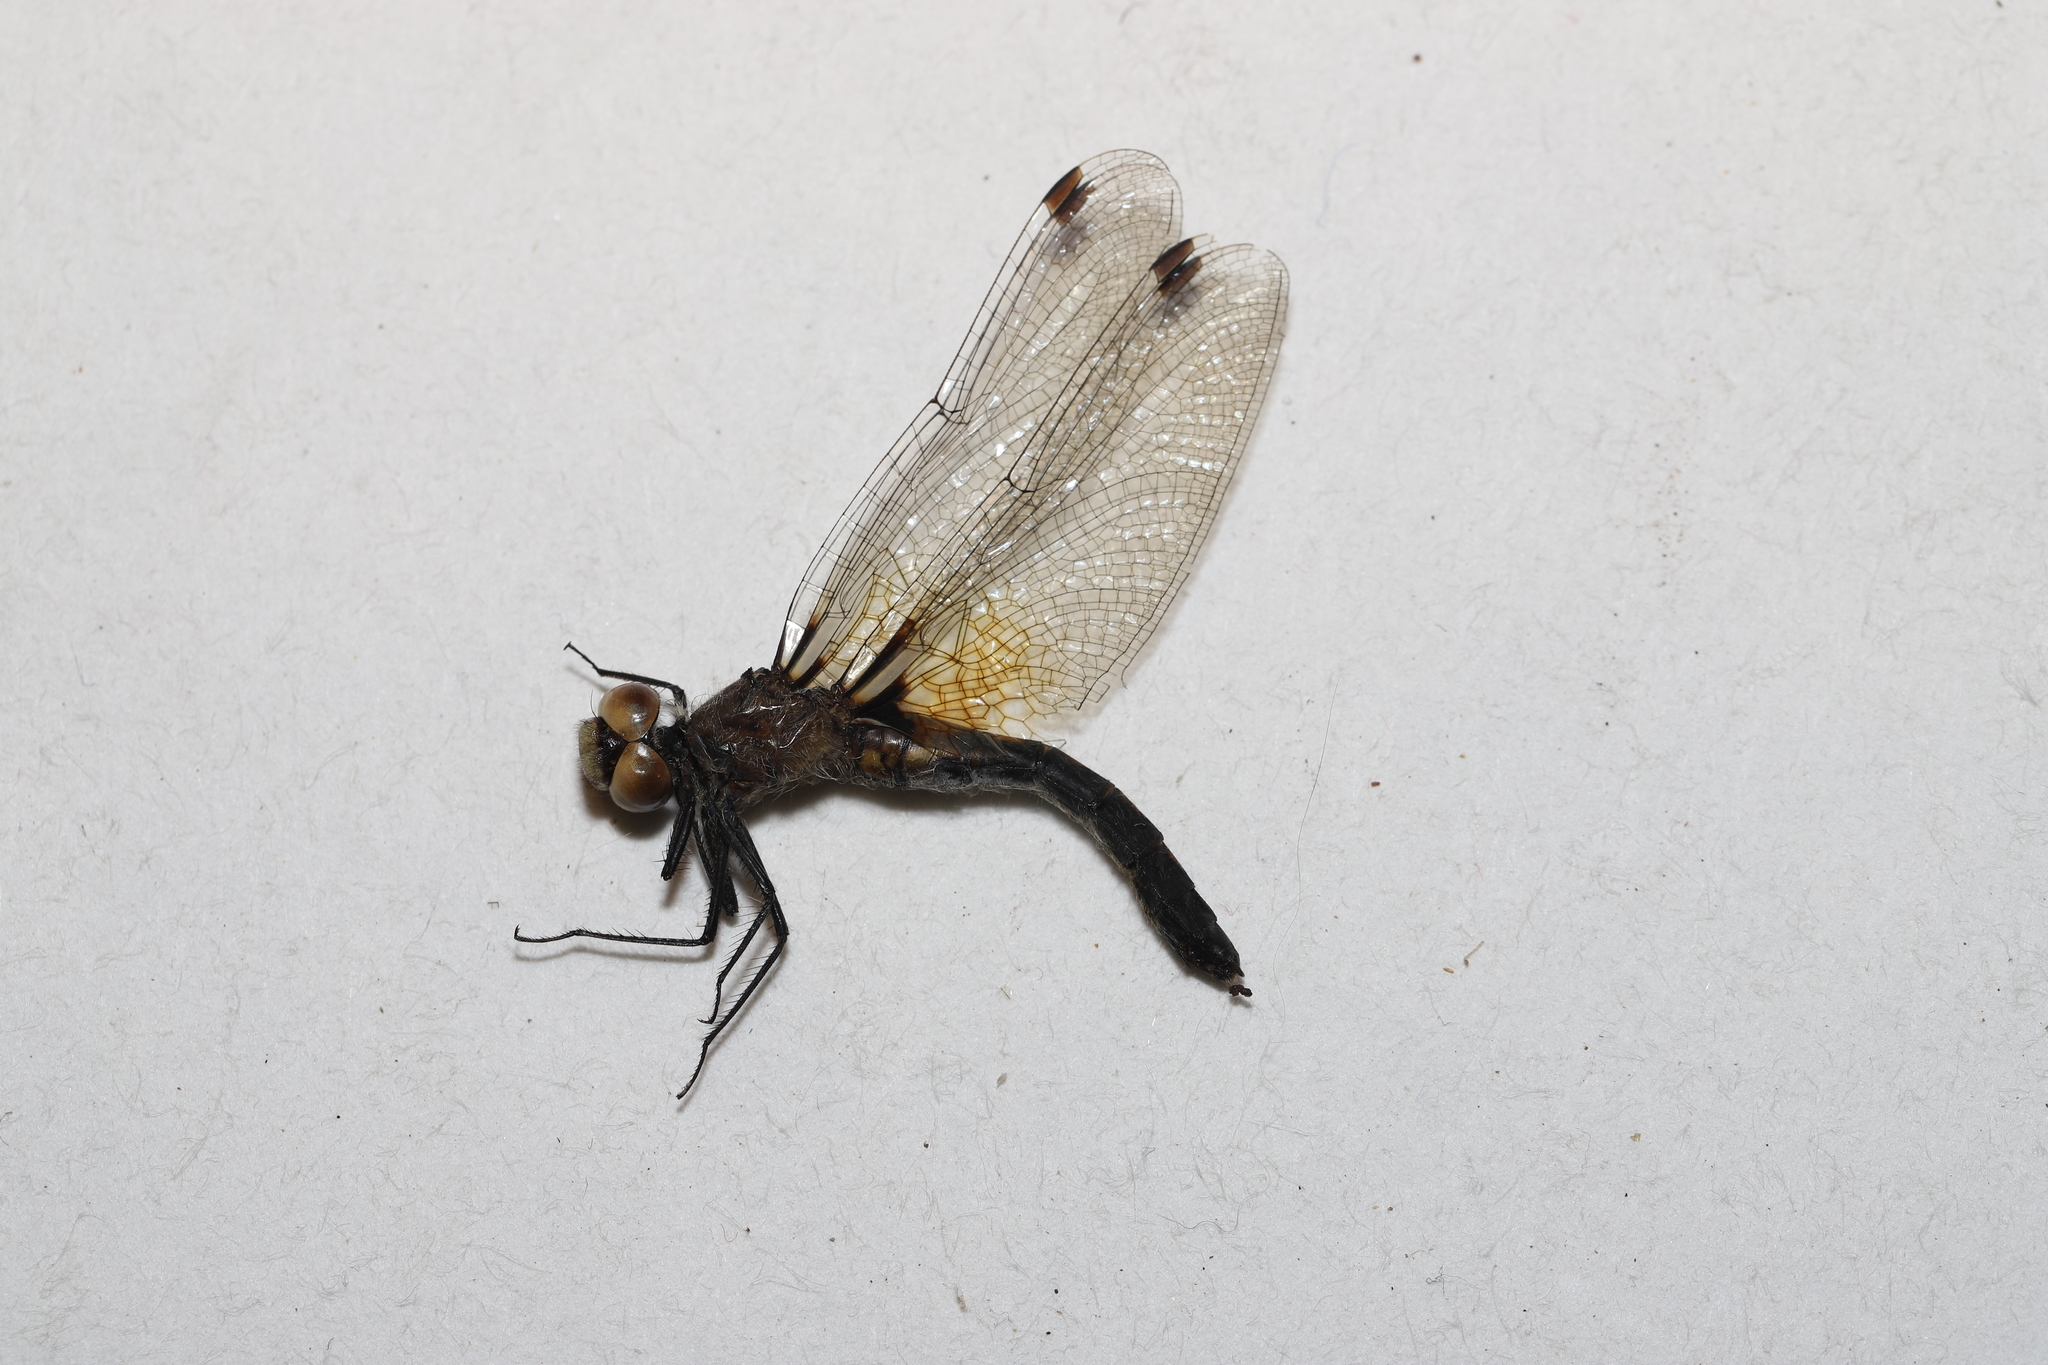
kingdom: Animalia
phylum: Arthropoda
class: Insecta
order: Odonata
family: Libellulidae
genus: Leucorrhinia
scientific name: Leucorrhinia frigida
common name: Frosted whiteface
